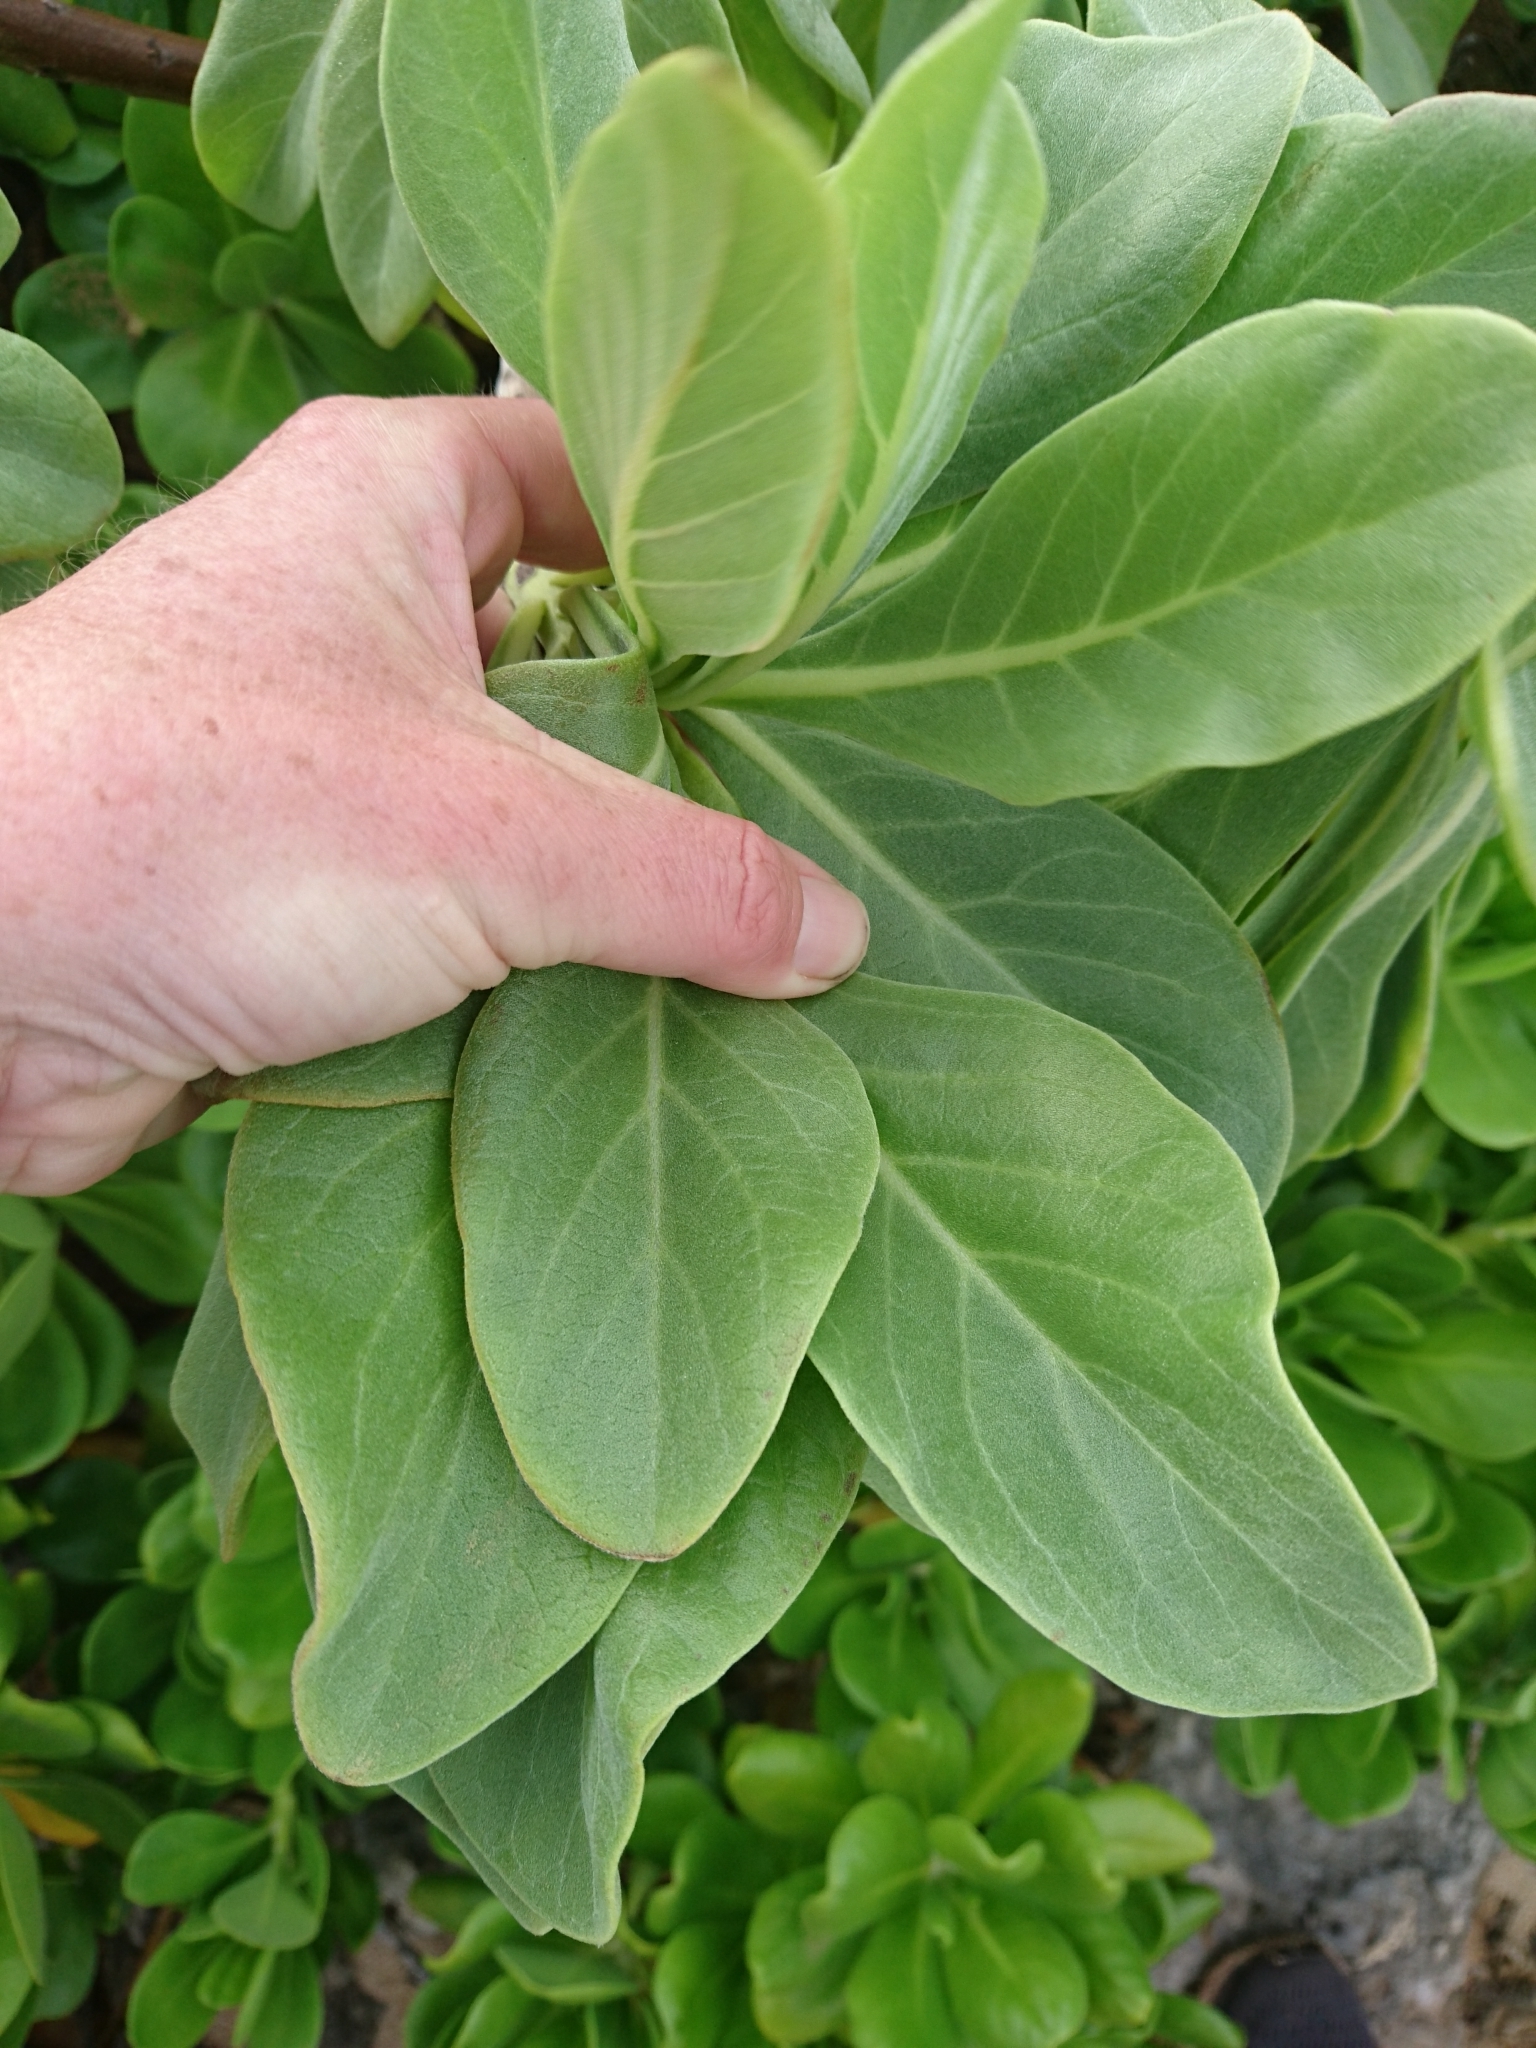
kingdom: Plantae
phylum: Tracheophyta
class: Magnoliopsida
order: Boraginales
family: Heliotropiaceae
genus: Heliotropium
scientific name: Heliotropium velutinum
